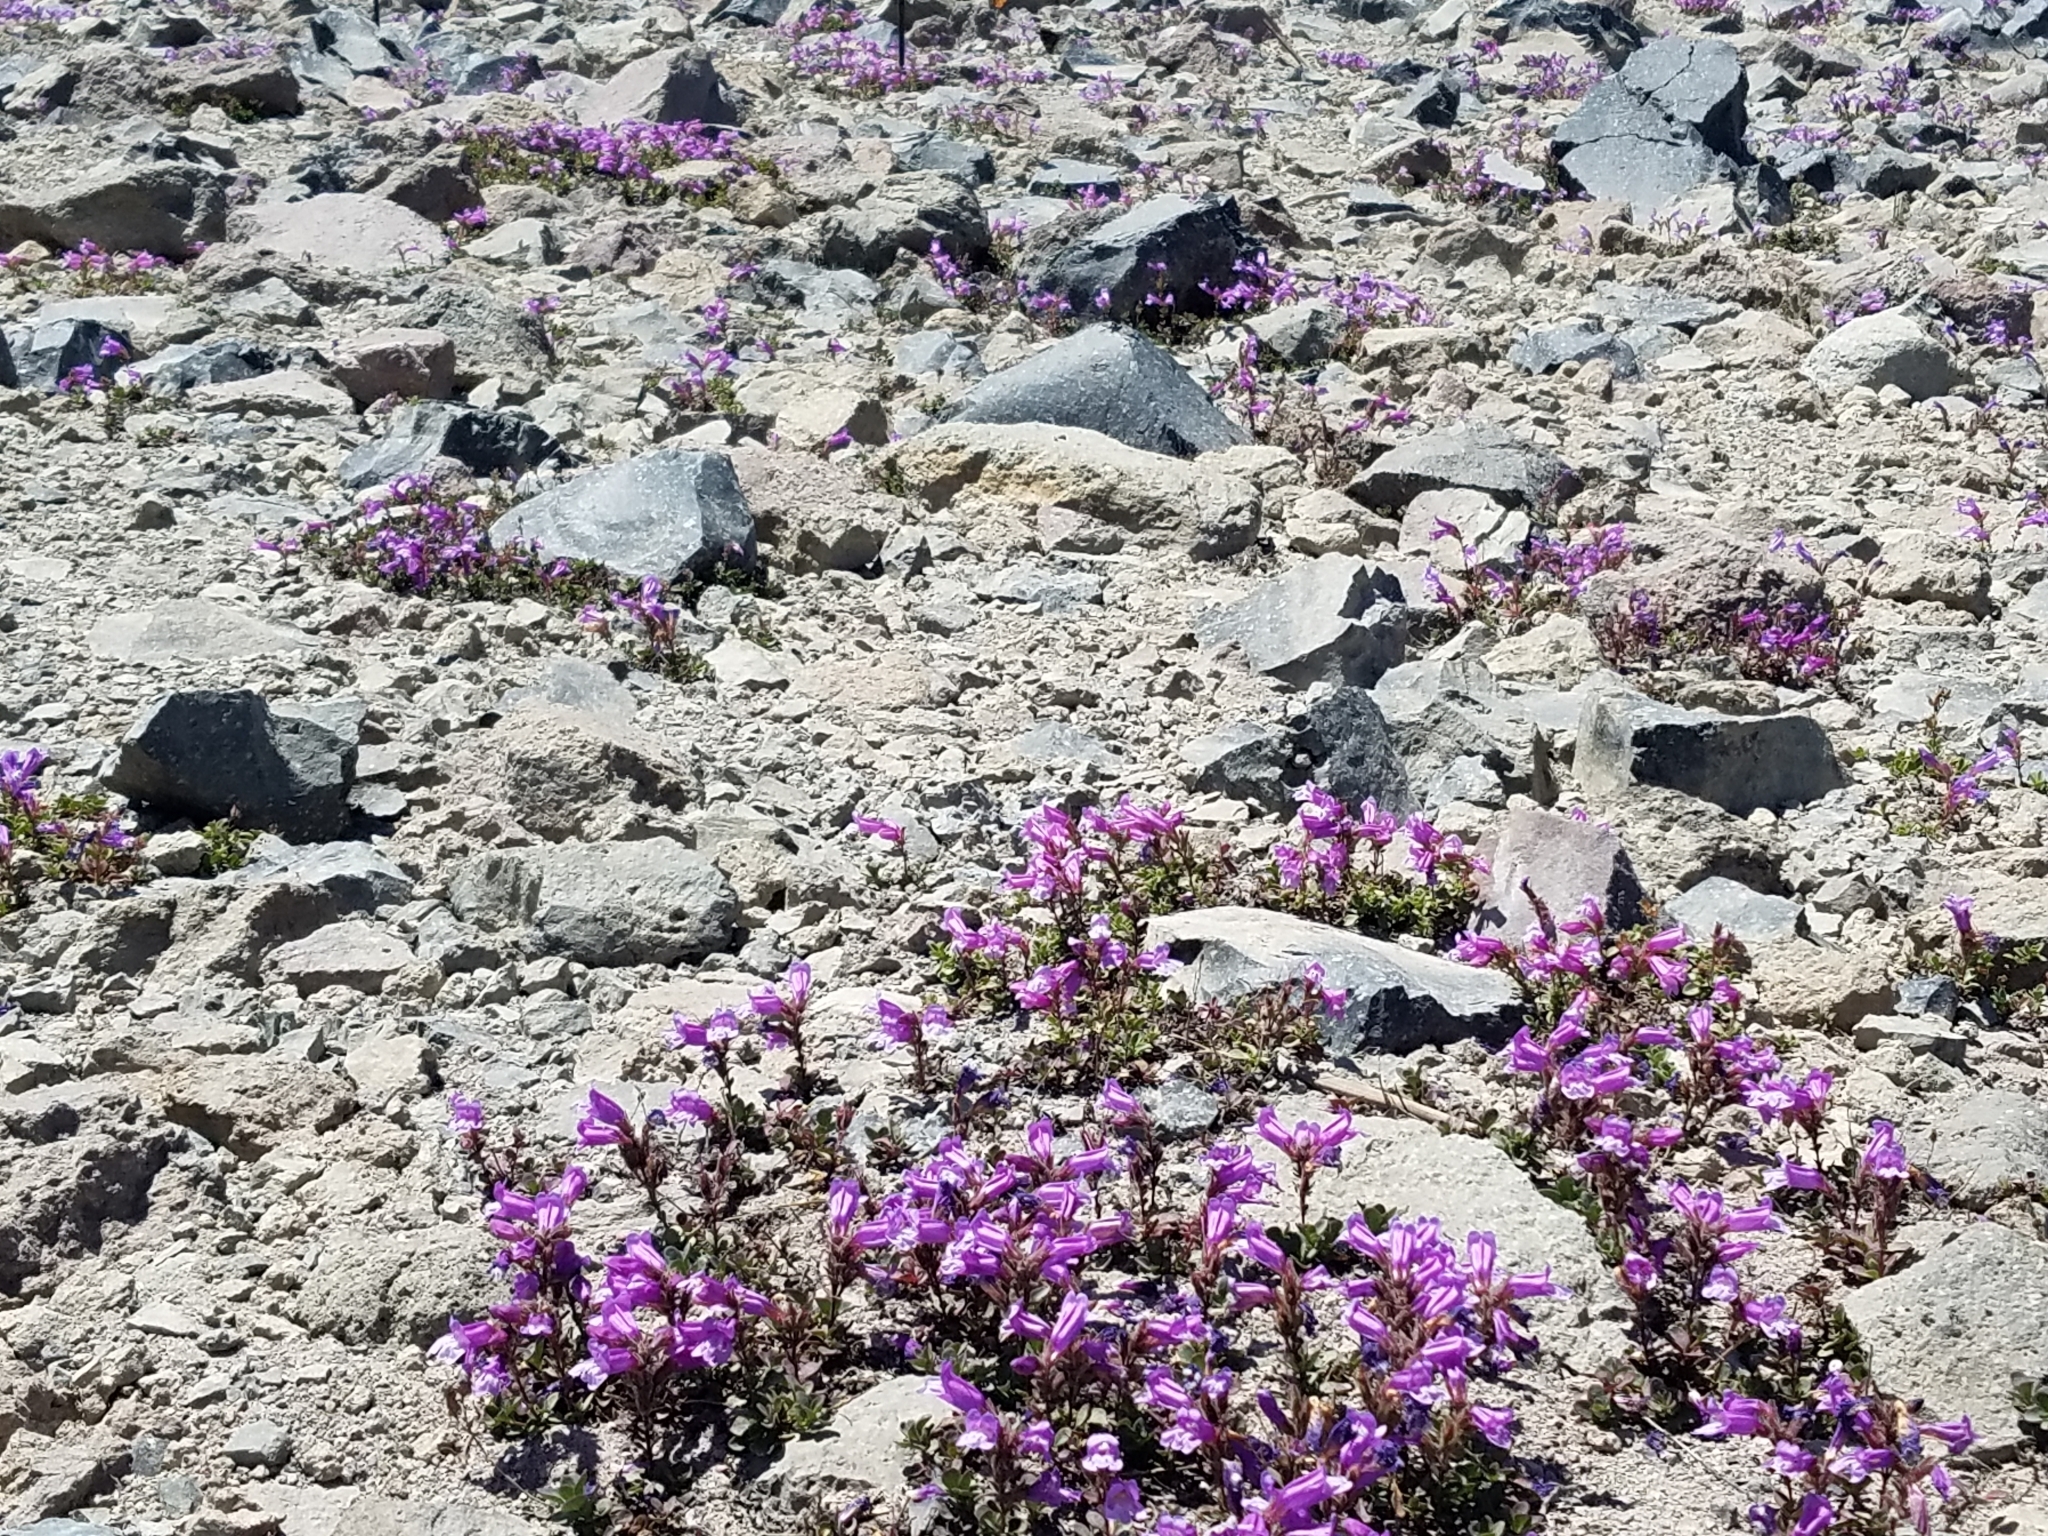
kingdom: Plantae
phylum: Tracheophyta
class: Magnoliopsida
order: Lamiales
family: Plantaginaceae
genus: Penstemon
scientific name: Penstemon davidsonii
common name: Davidson's penstemon
